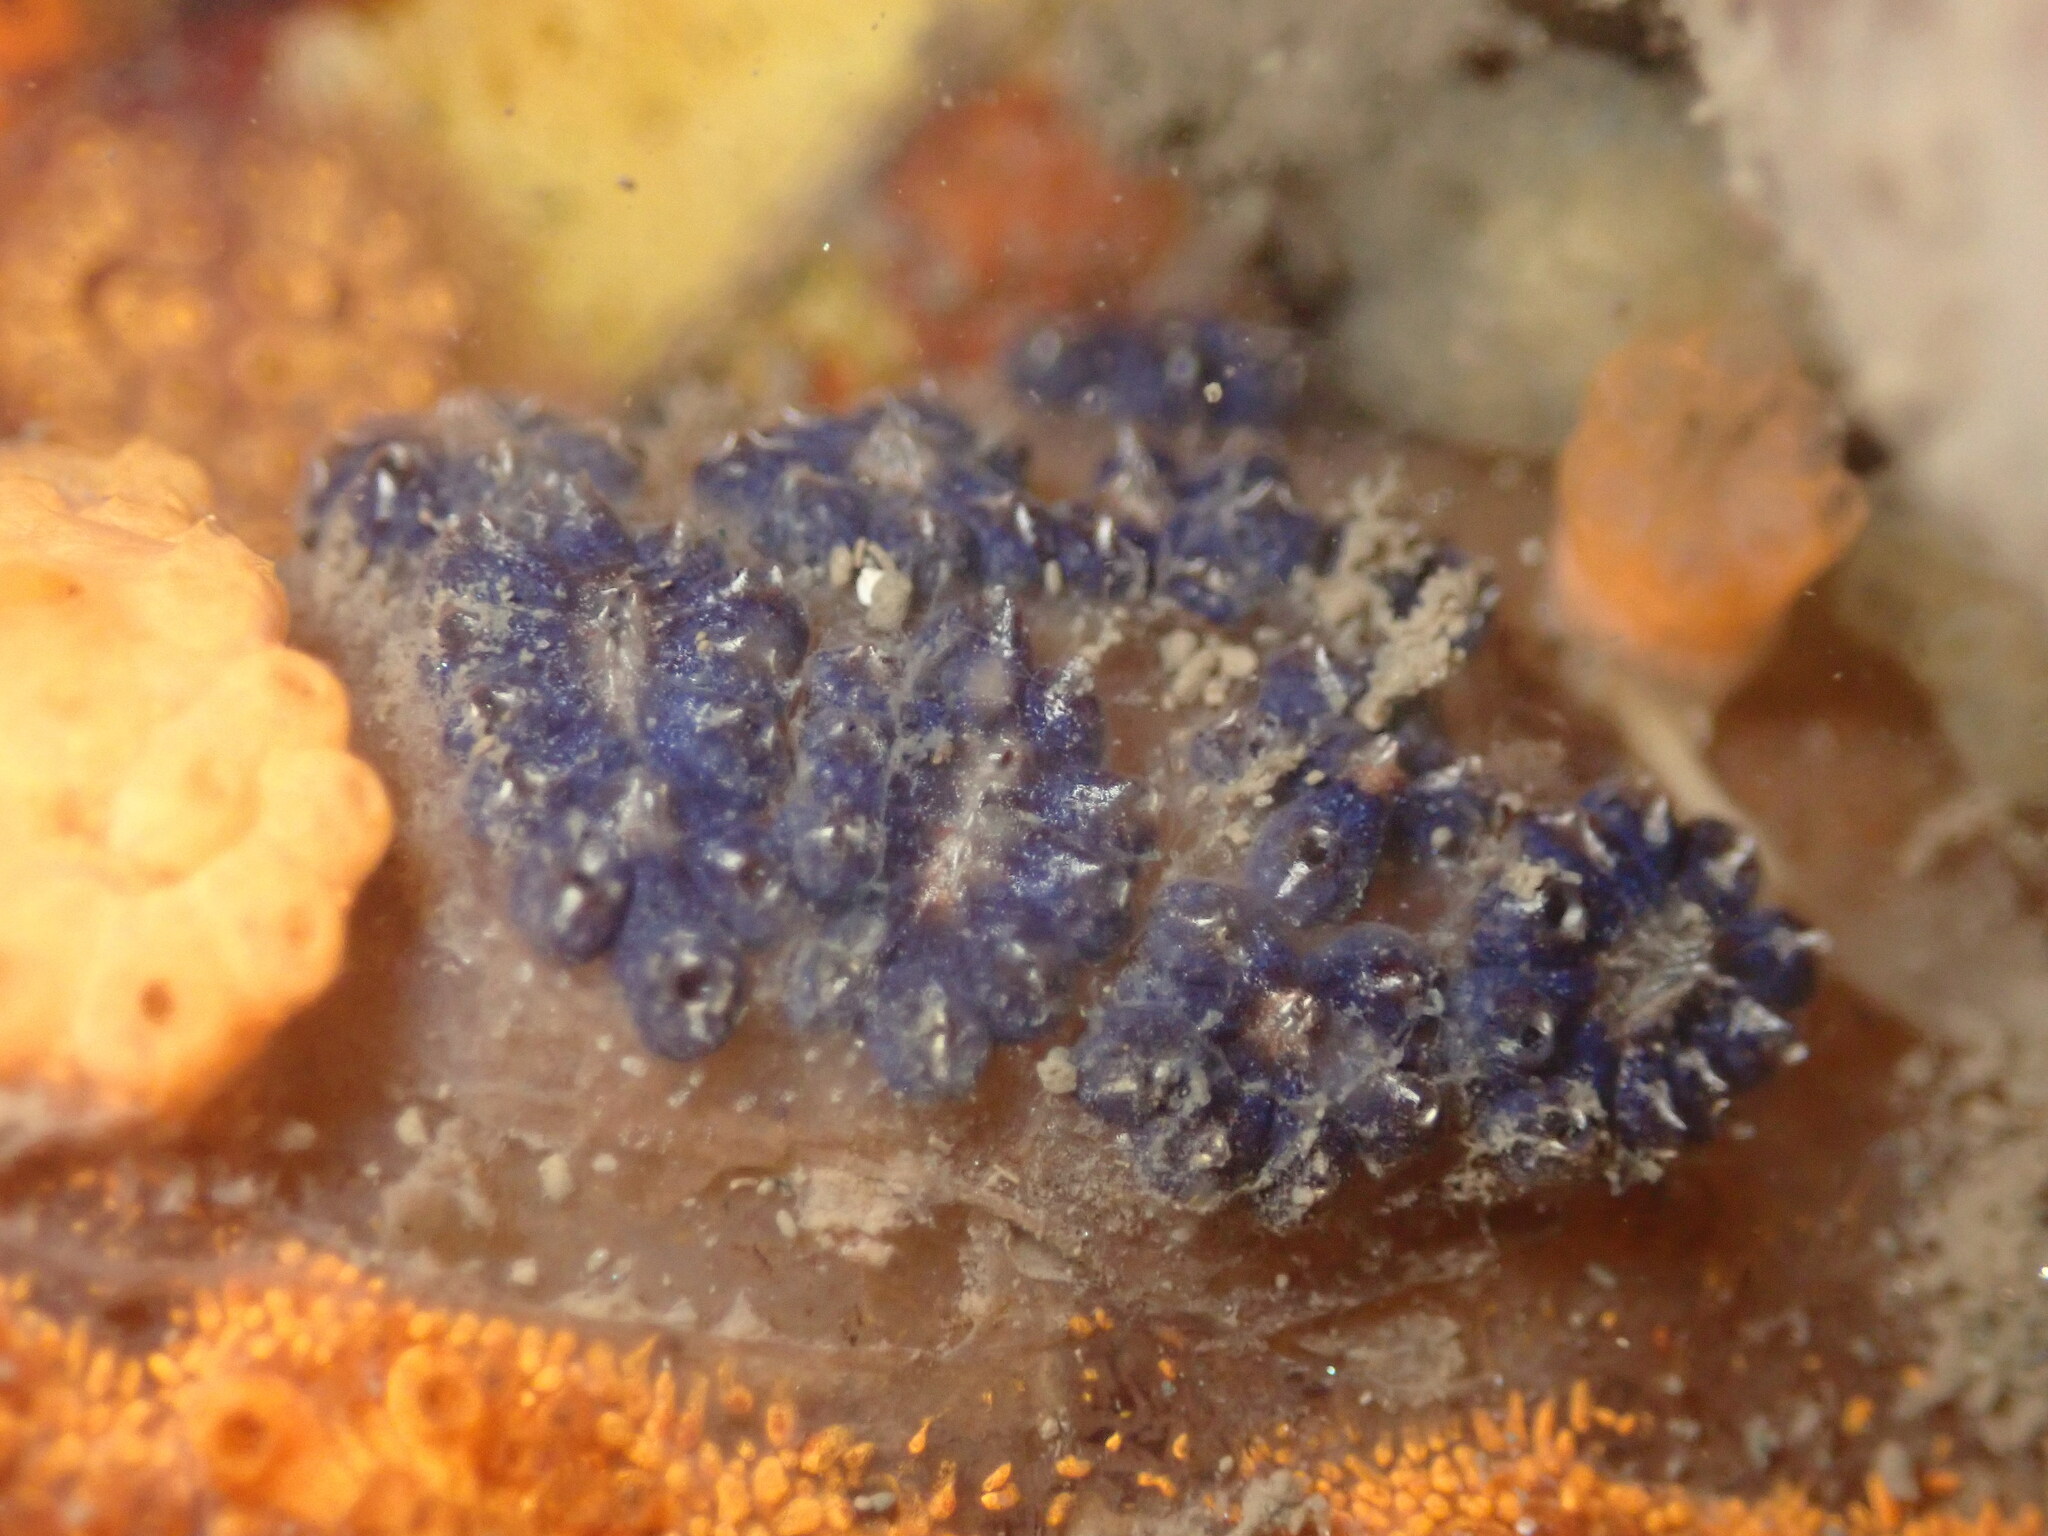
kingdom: Animalia
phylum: Chordata
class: Ascidiacea
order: Stolidobranchia
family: Styelidae
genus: Botryllus
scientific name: Botryllus schlosseri
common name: Golden star tunicate
